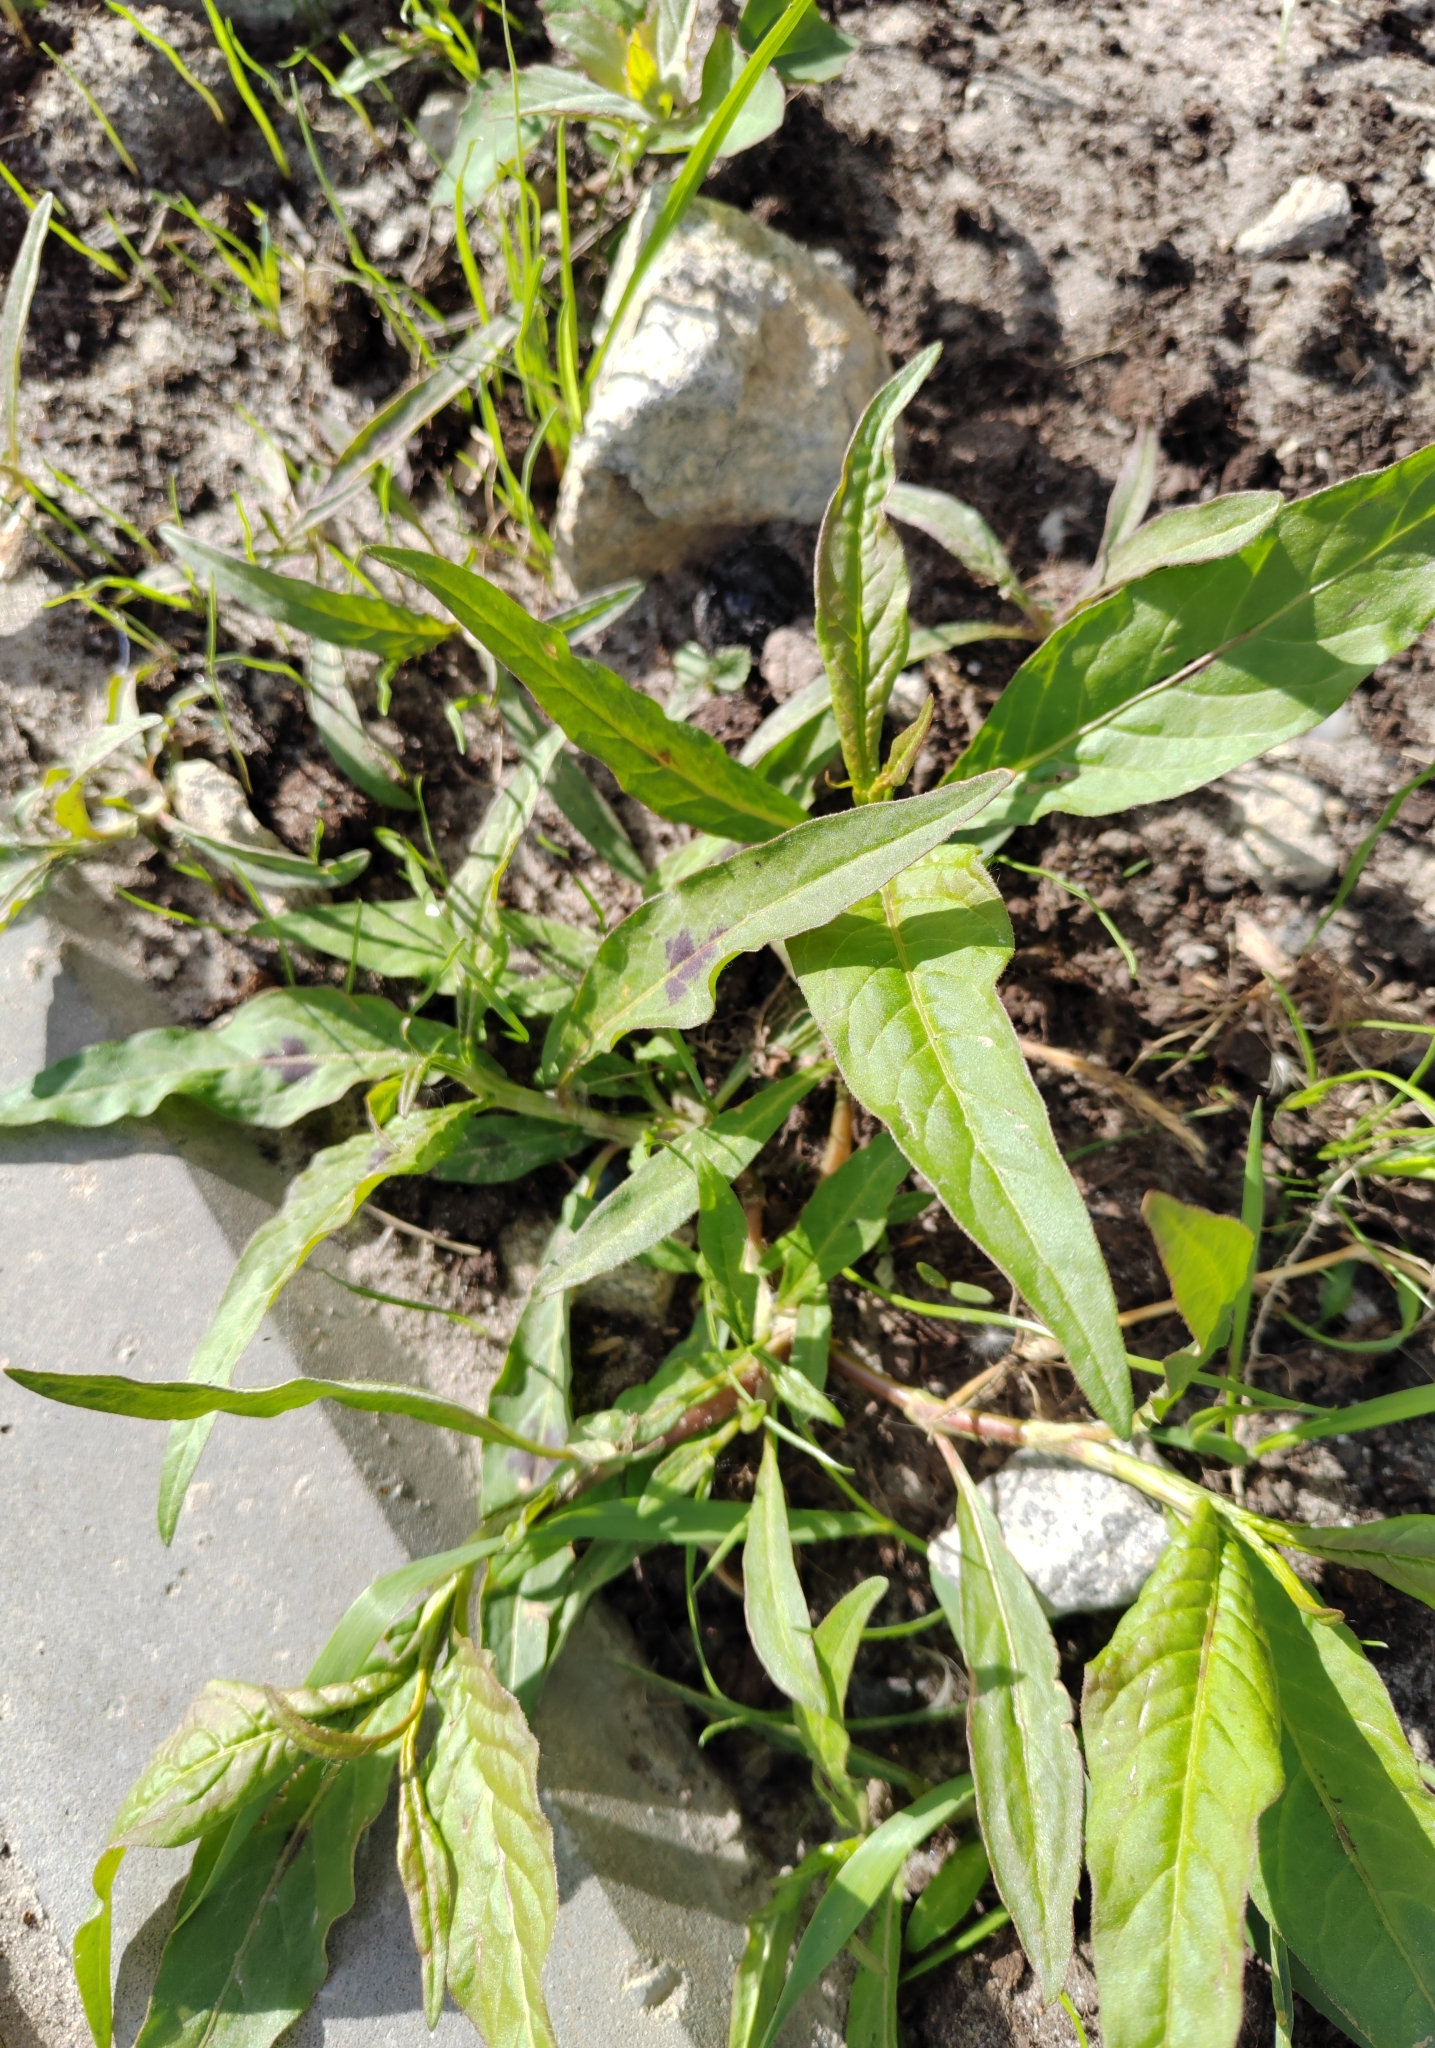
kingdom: Plantae
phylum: Tracheophyta
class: Magnoliopsida
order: Caryophyllales
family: Polygonaceae
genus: Persicaria
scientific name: Persicaria lapathifolia
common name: Curlytop knotweed
